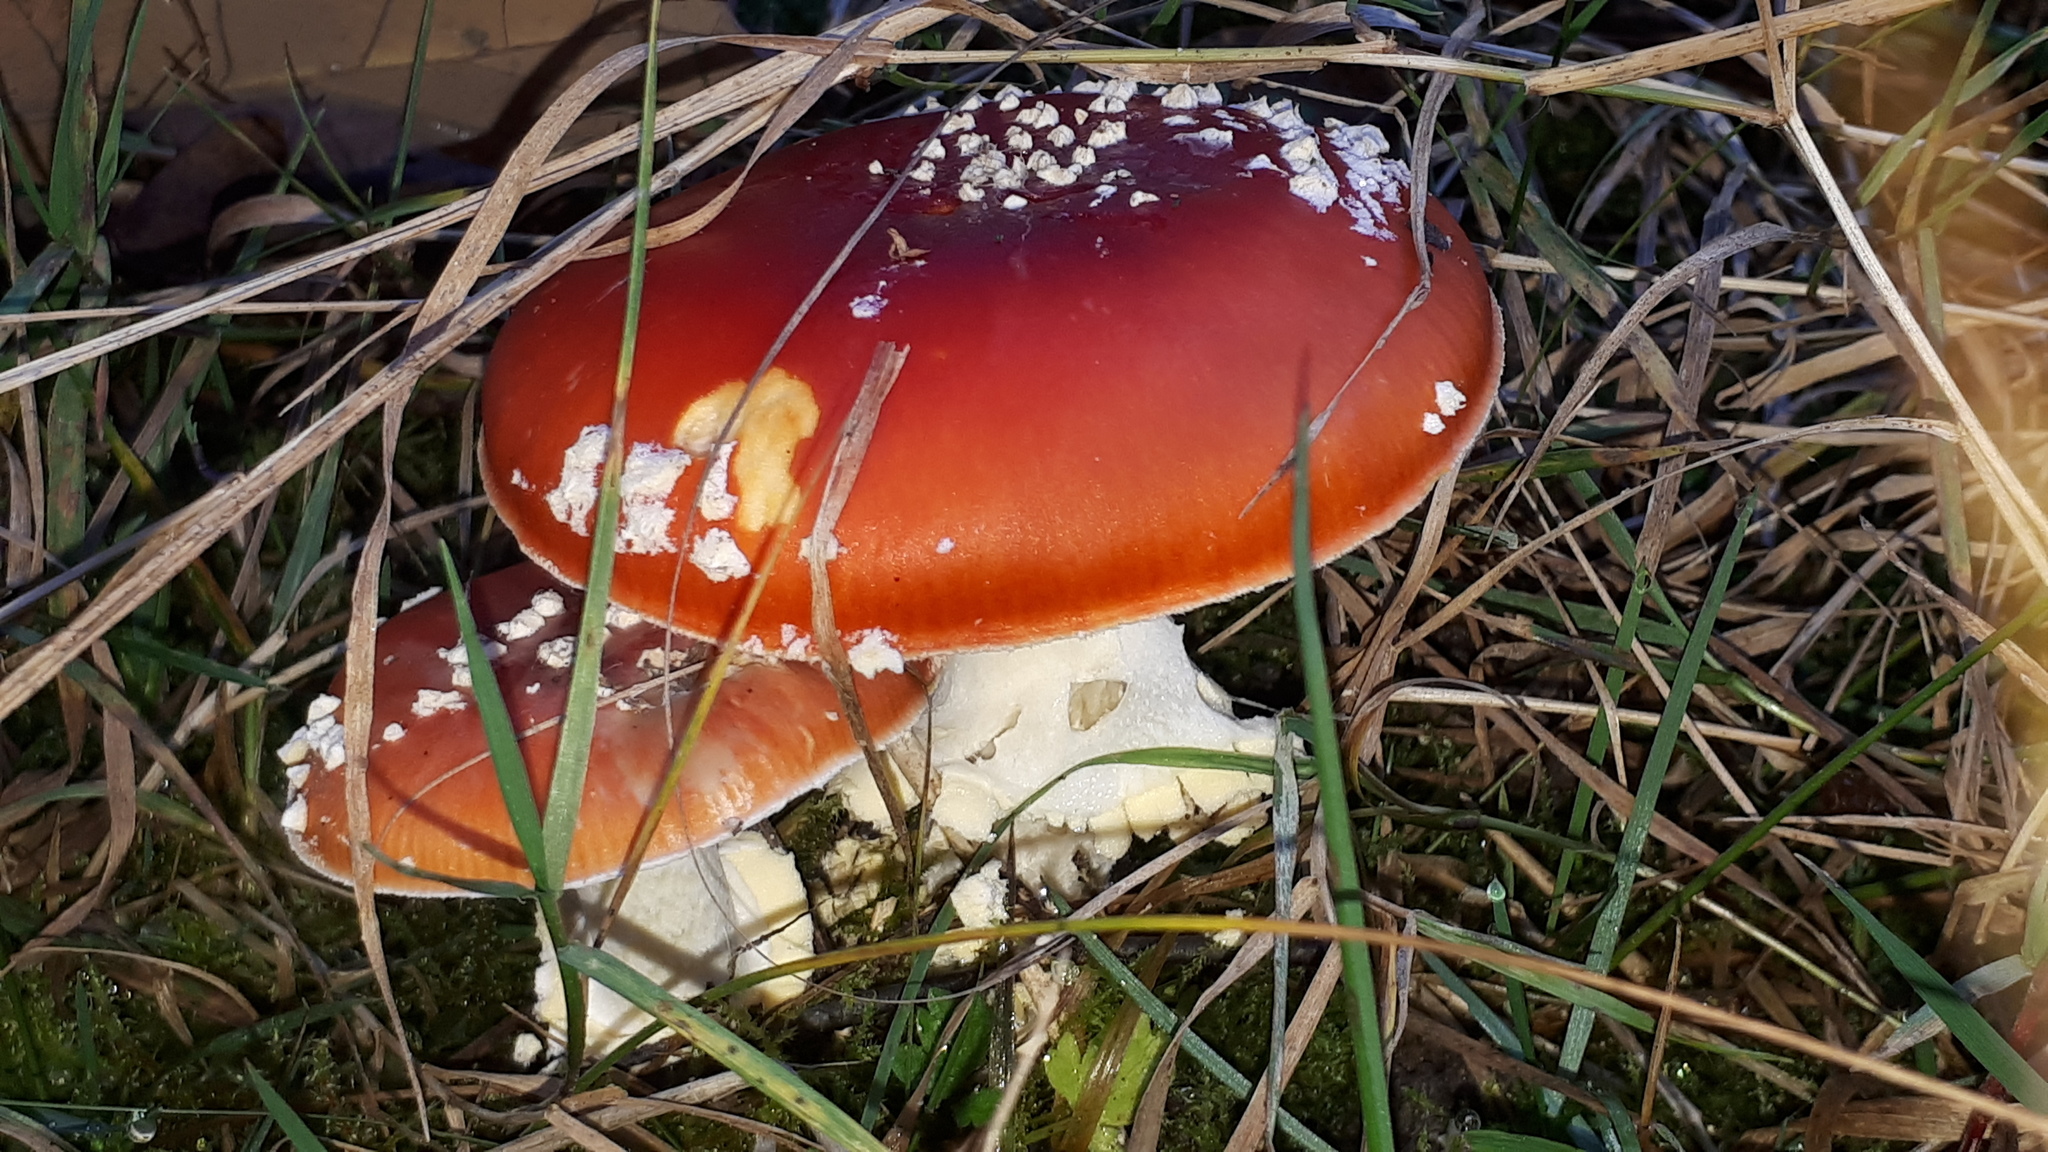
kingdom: Fungi
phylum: Basidiomycota
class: Agaricomycetes
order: Agaricales
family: Amanitaceae
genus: Amanita
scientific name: Amanita muscaria
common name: Fly agaric
